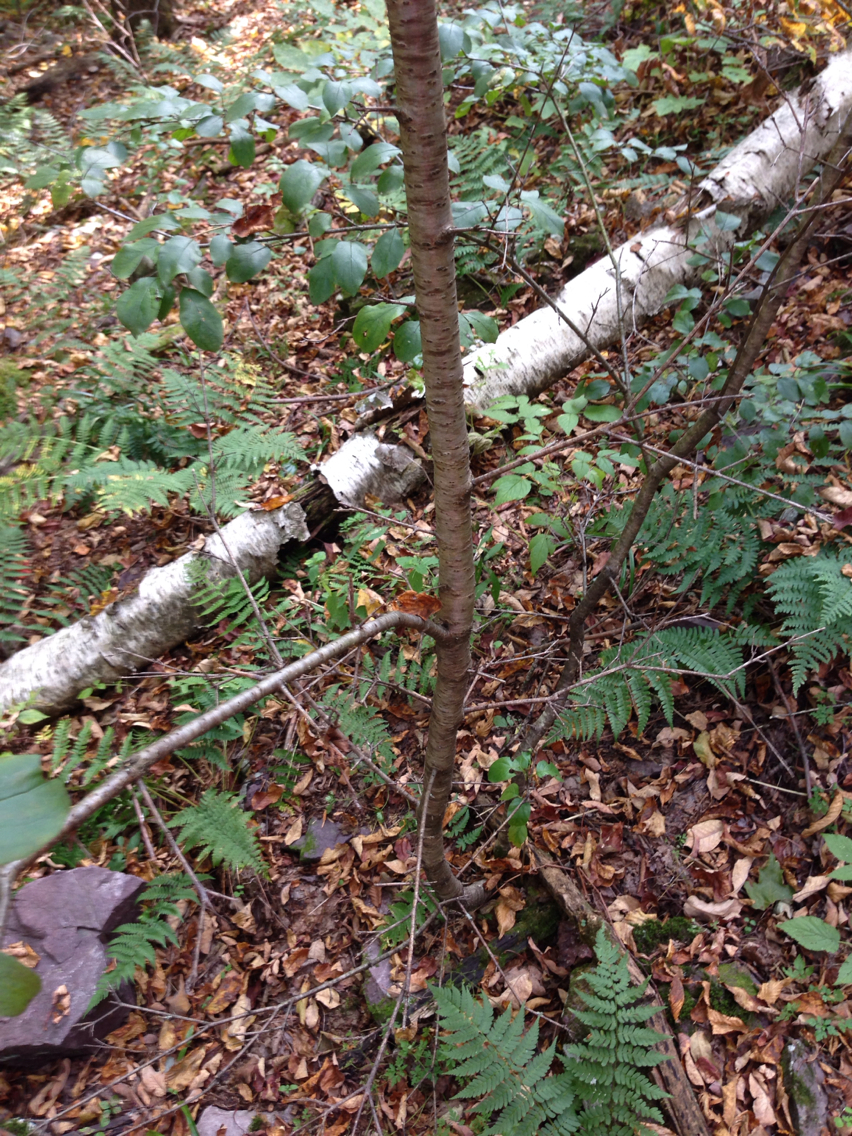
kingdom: Plantae
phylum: Tracheophyta
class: Magnoliopsida
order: Rosales
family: Rhamnaceae
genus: Rhamnus
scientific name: Rhamnus cathartica
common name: Common buckthorn
